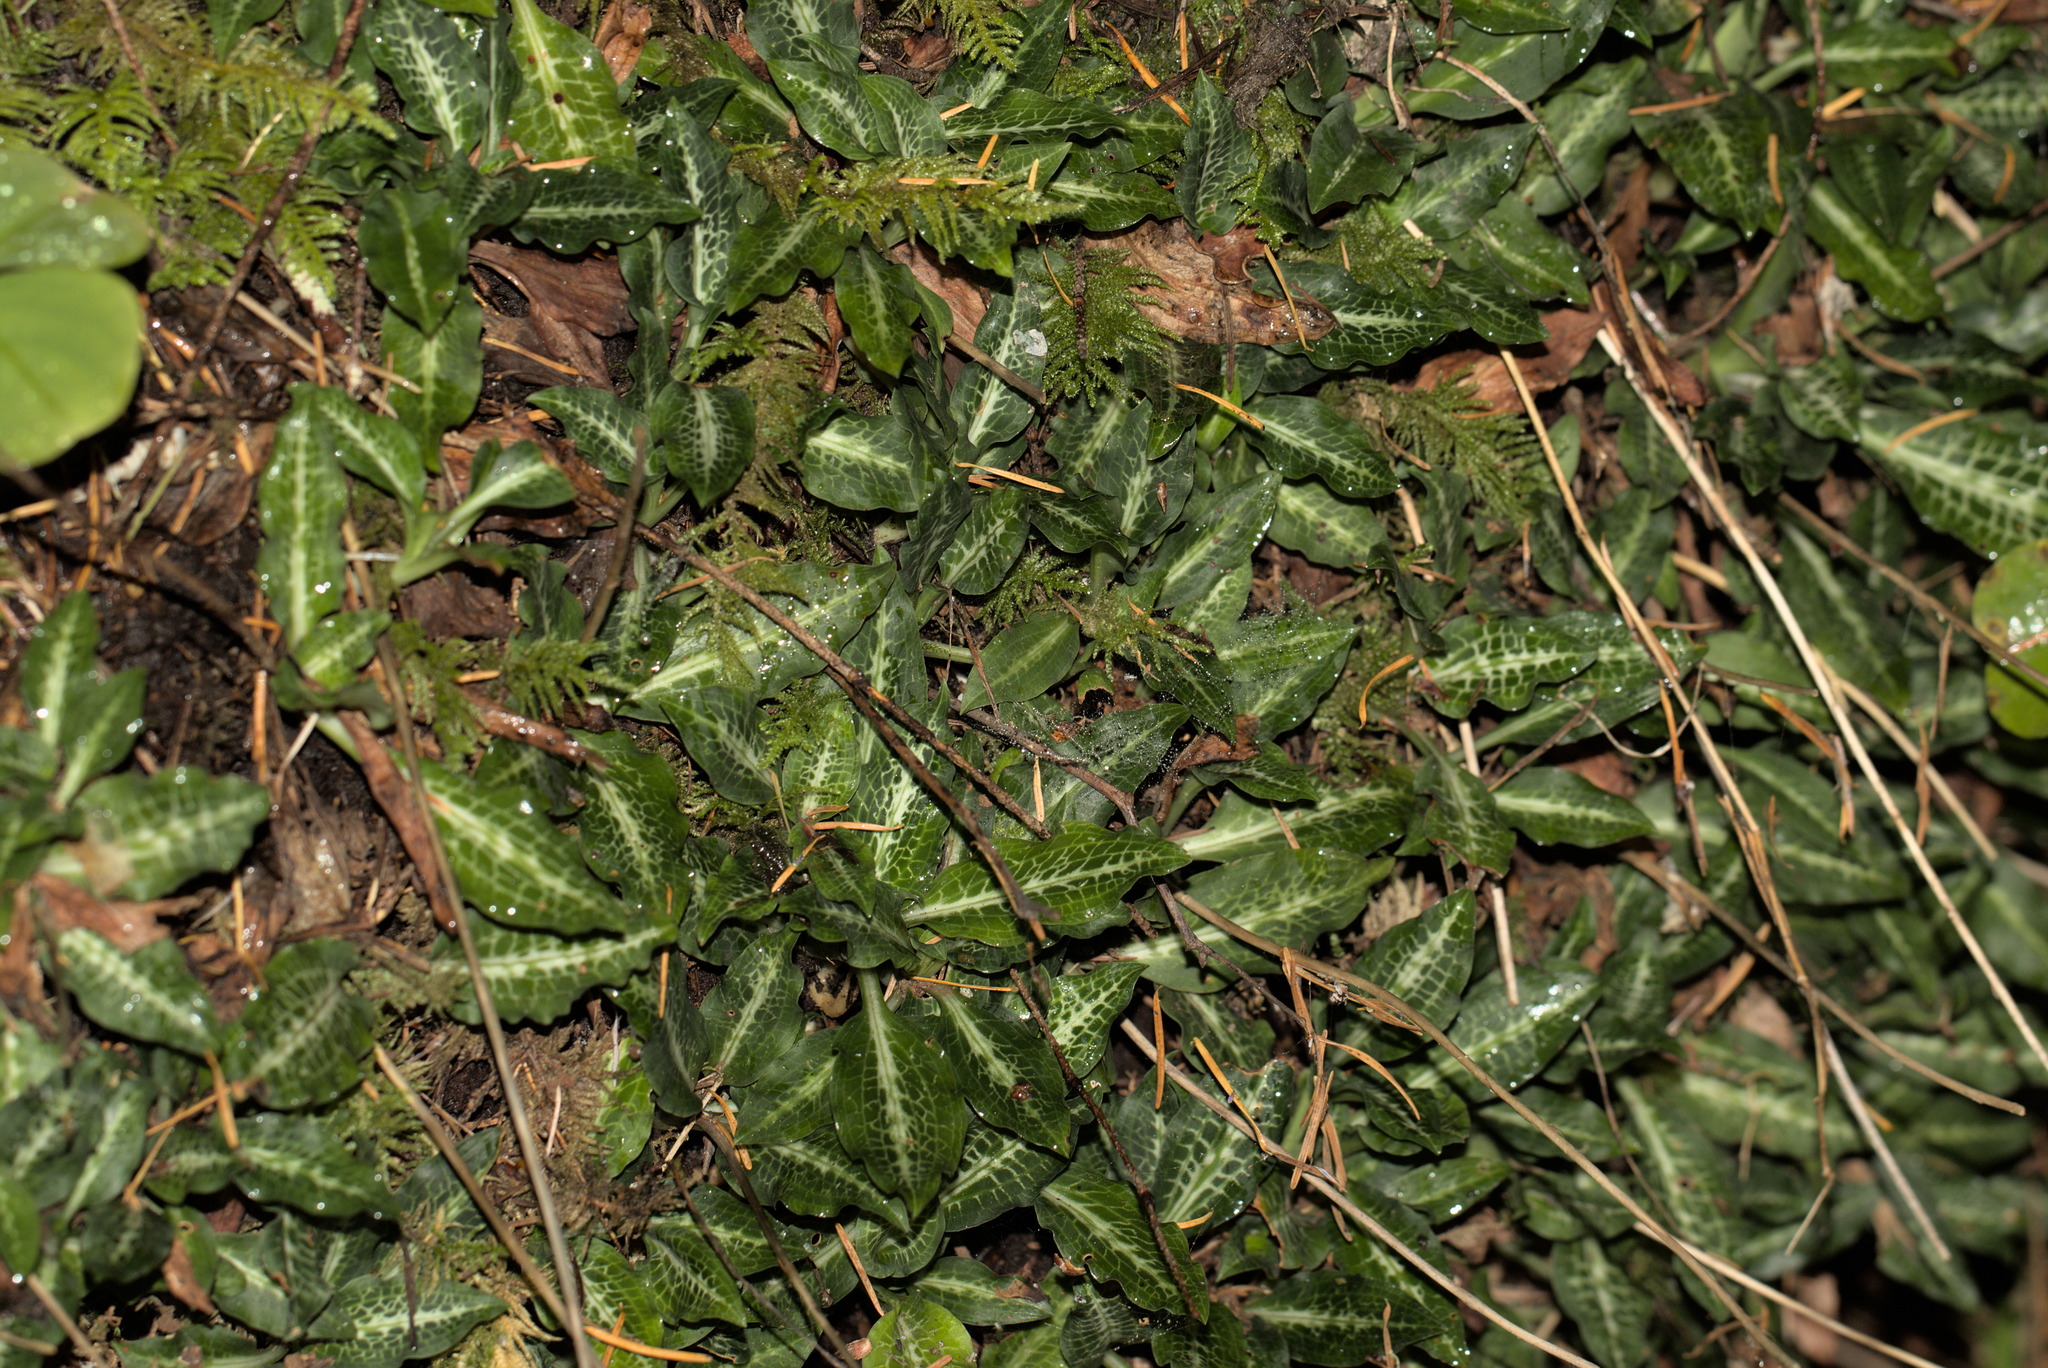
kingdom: Plantae
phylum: Tracheophyta
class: Liliopsida
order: Asparagales
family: Orchidaceae
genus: Goodyera
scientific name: Goodyera oblongifolia
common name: Giant rattlesnake-plantain
